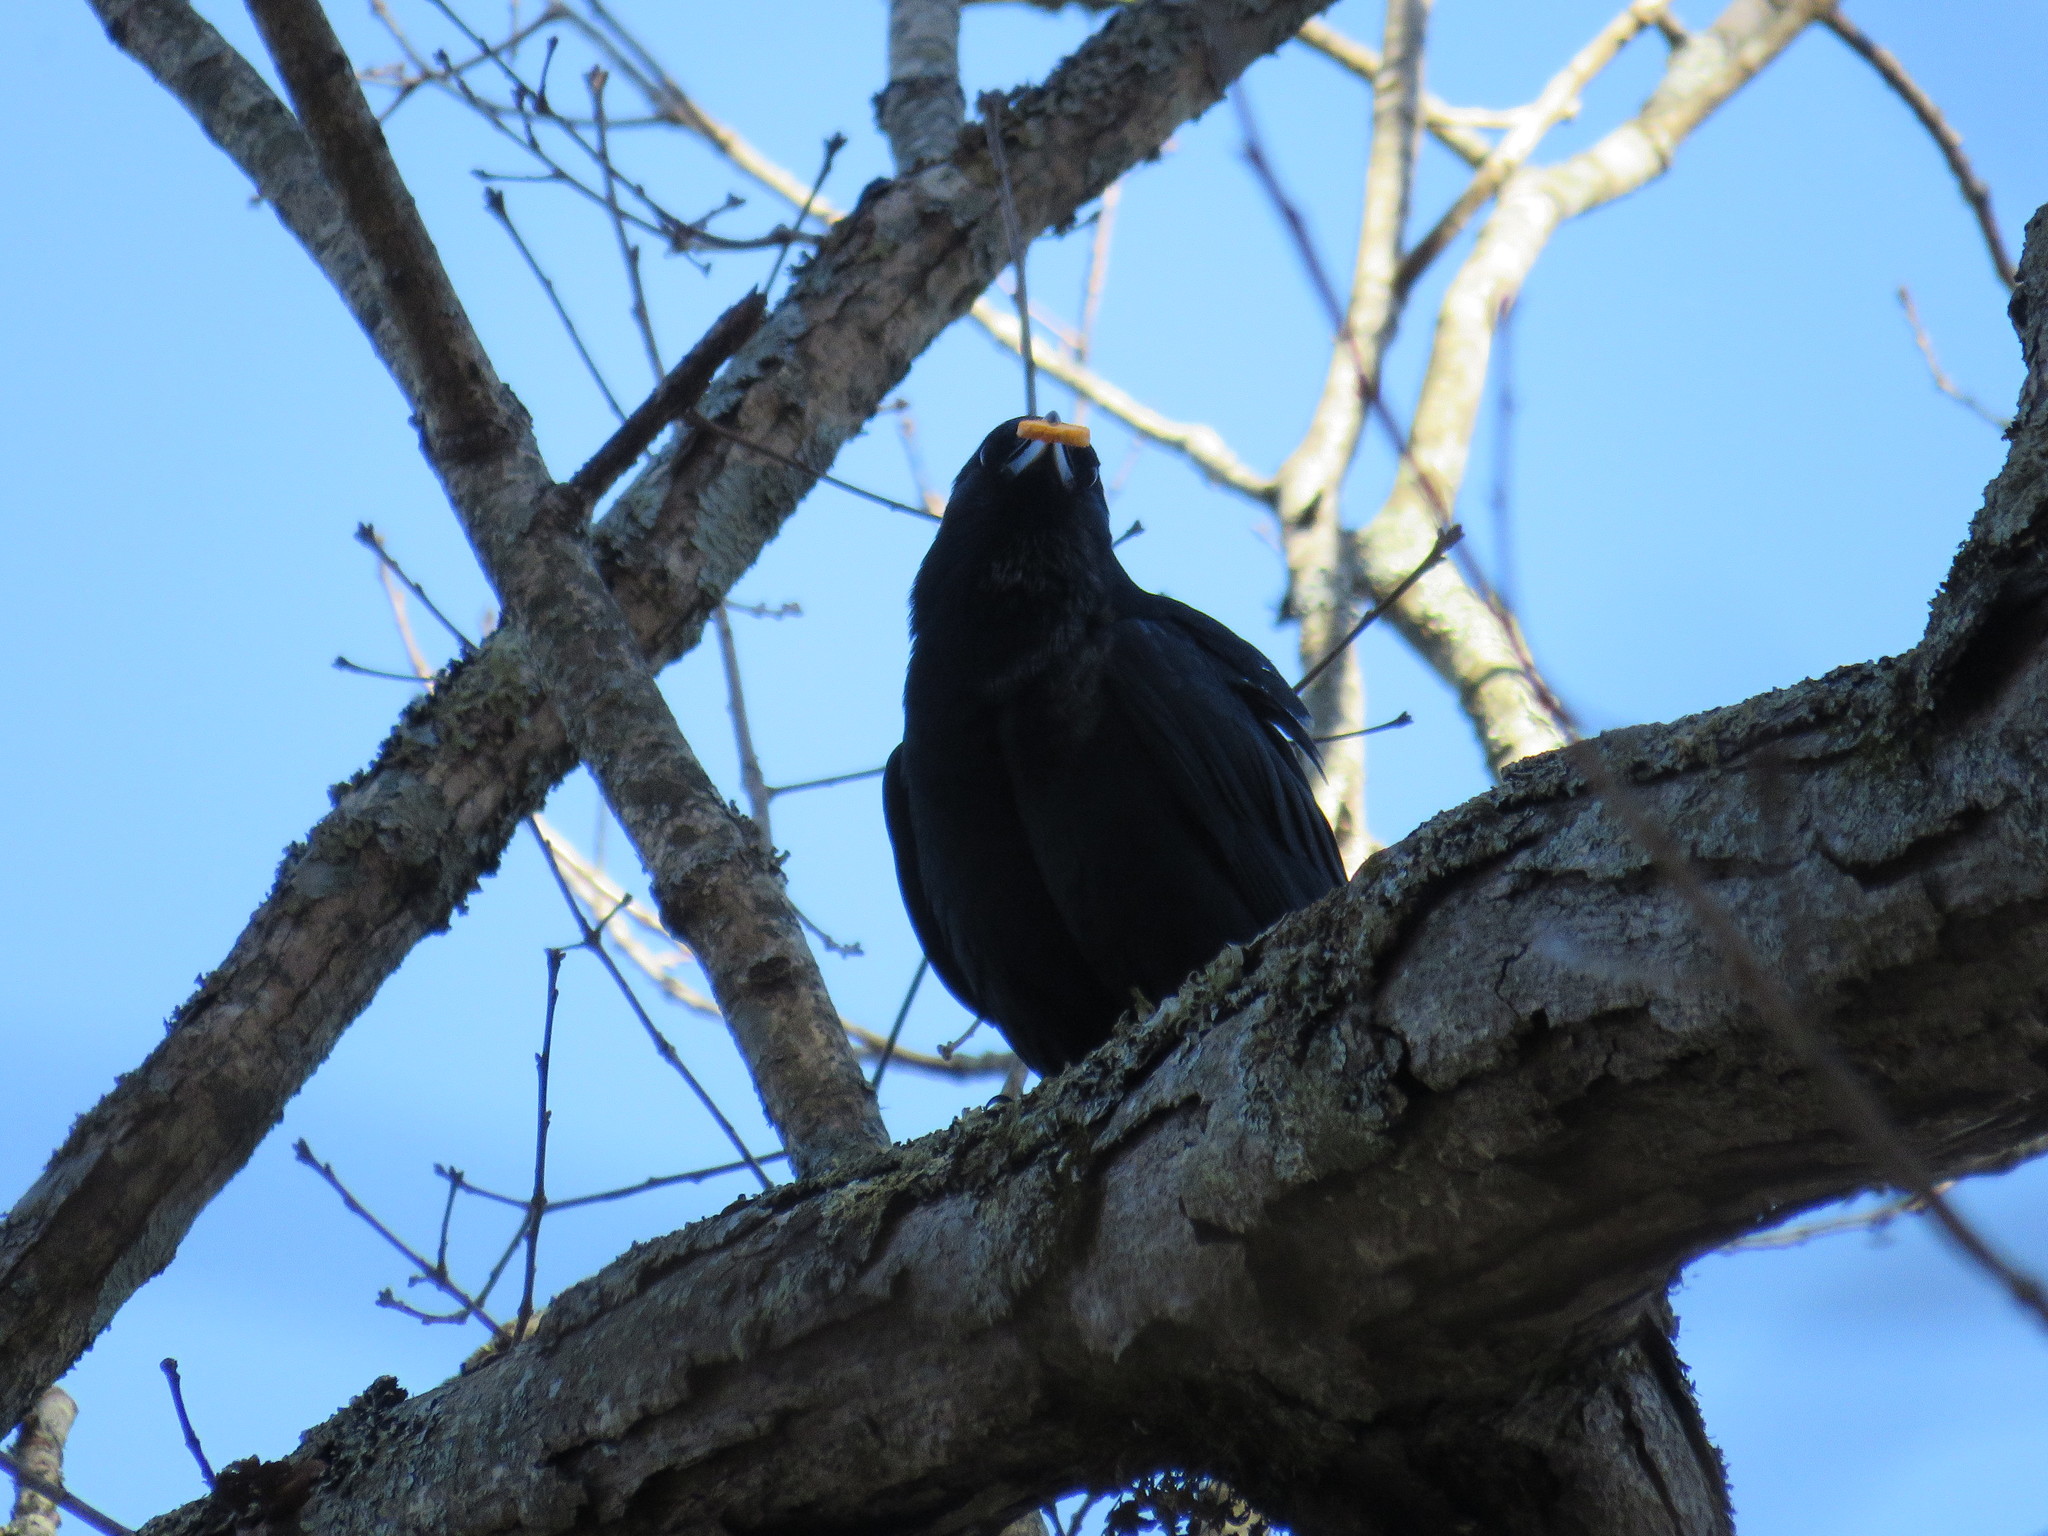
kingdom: Animalia
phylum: Chordata
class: Aves
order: Passeriformes
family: Corvidae
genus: Corvus
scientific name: Corvus brachyrhynchos
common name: American crow
